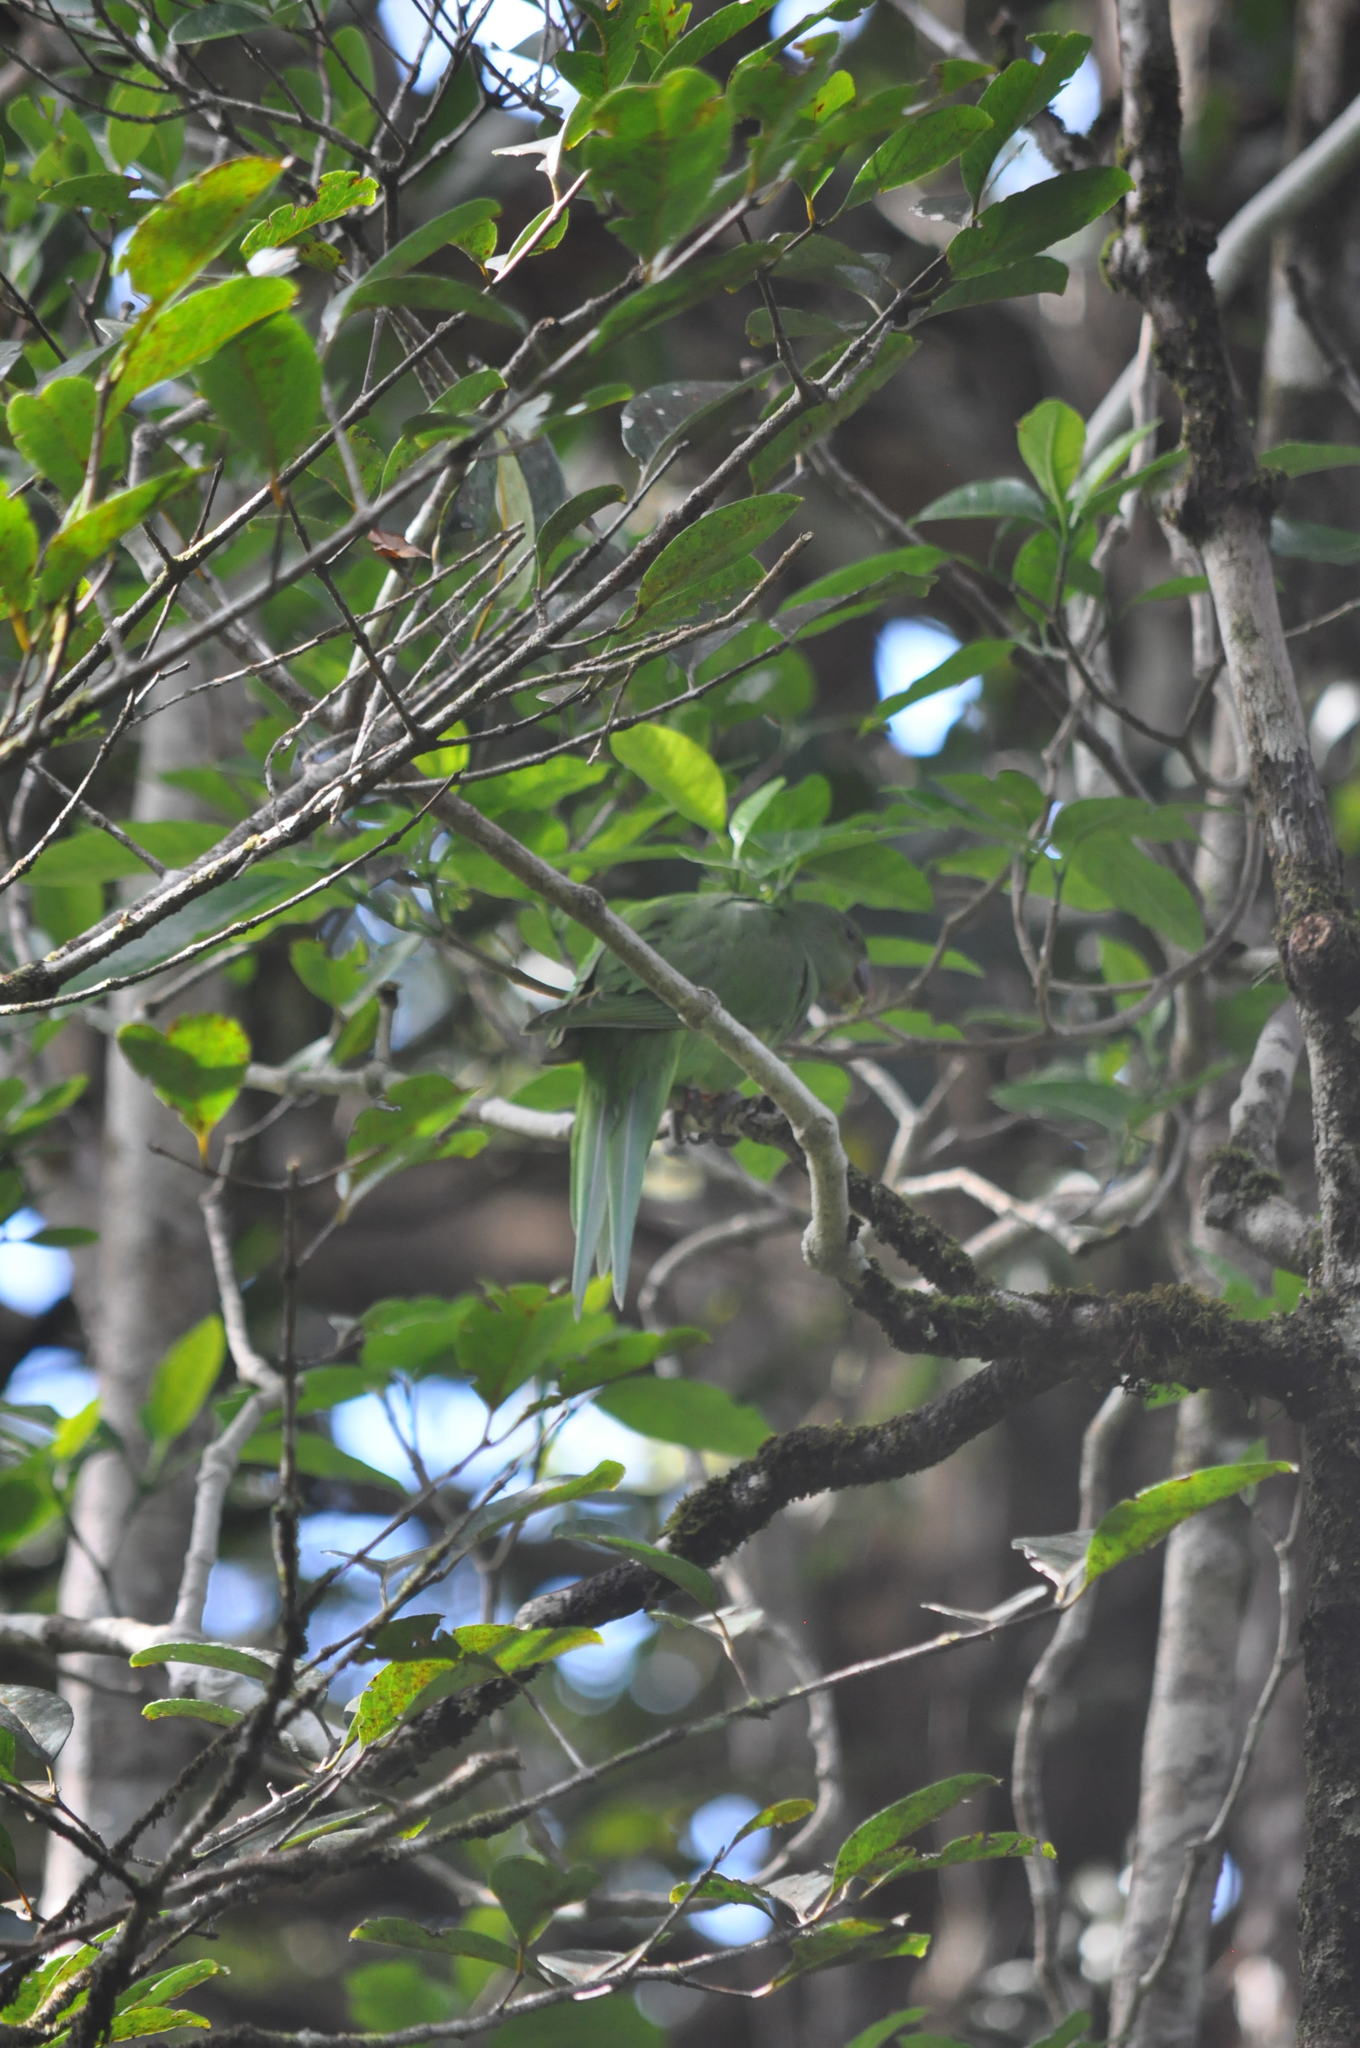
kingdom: Animalia
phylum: Chordata
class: Aves
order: Psittaciformes
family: Psittacidae
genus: Psittacula
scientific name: Psittacula echo
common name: Mauritius parakeet
